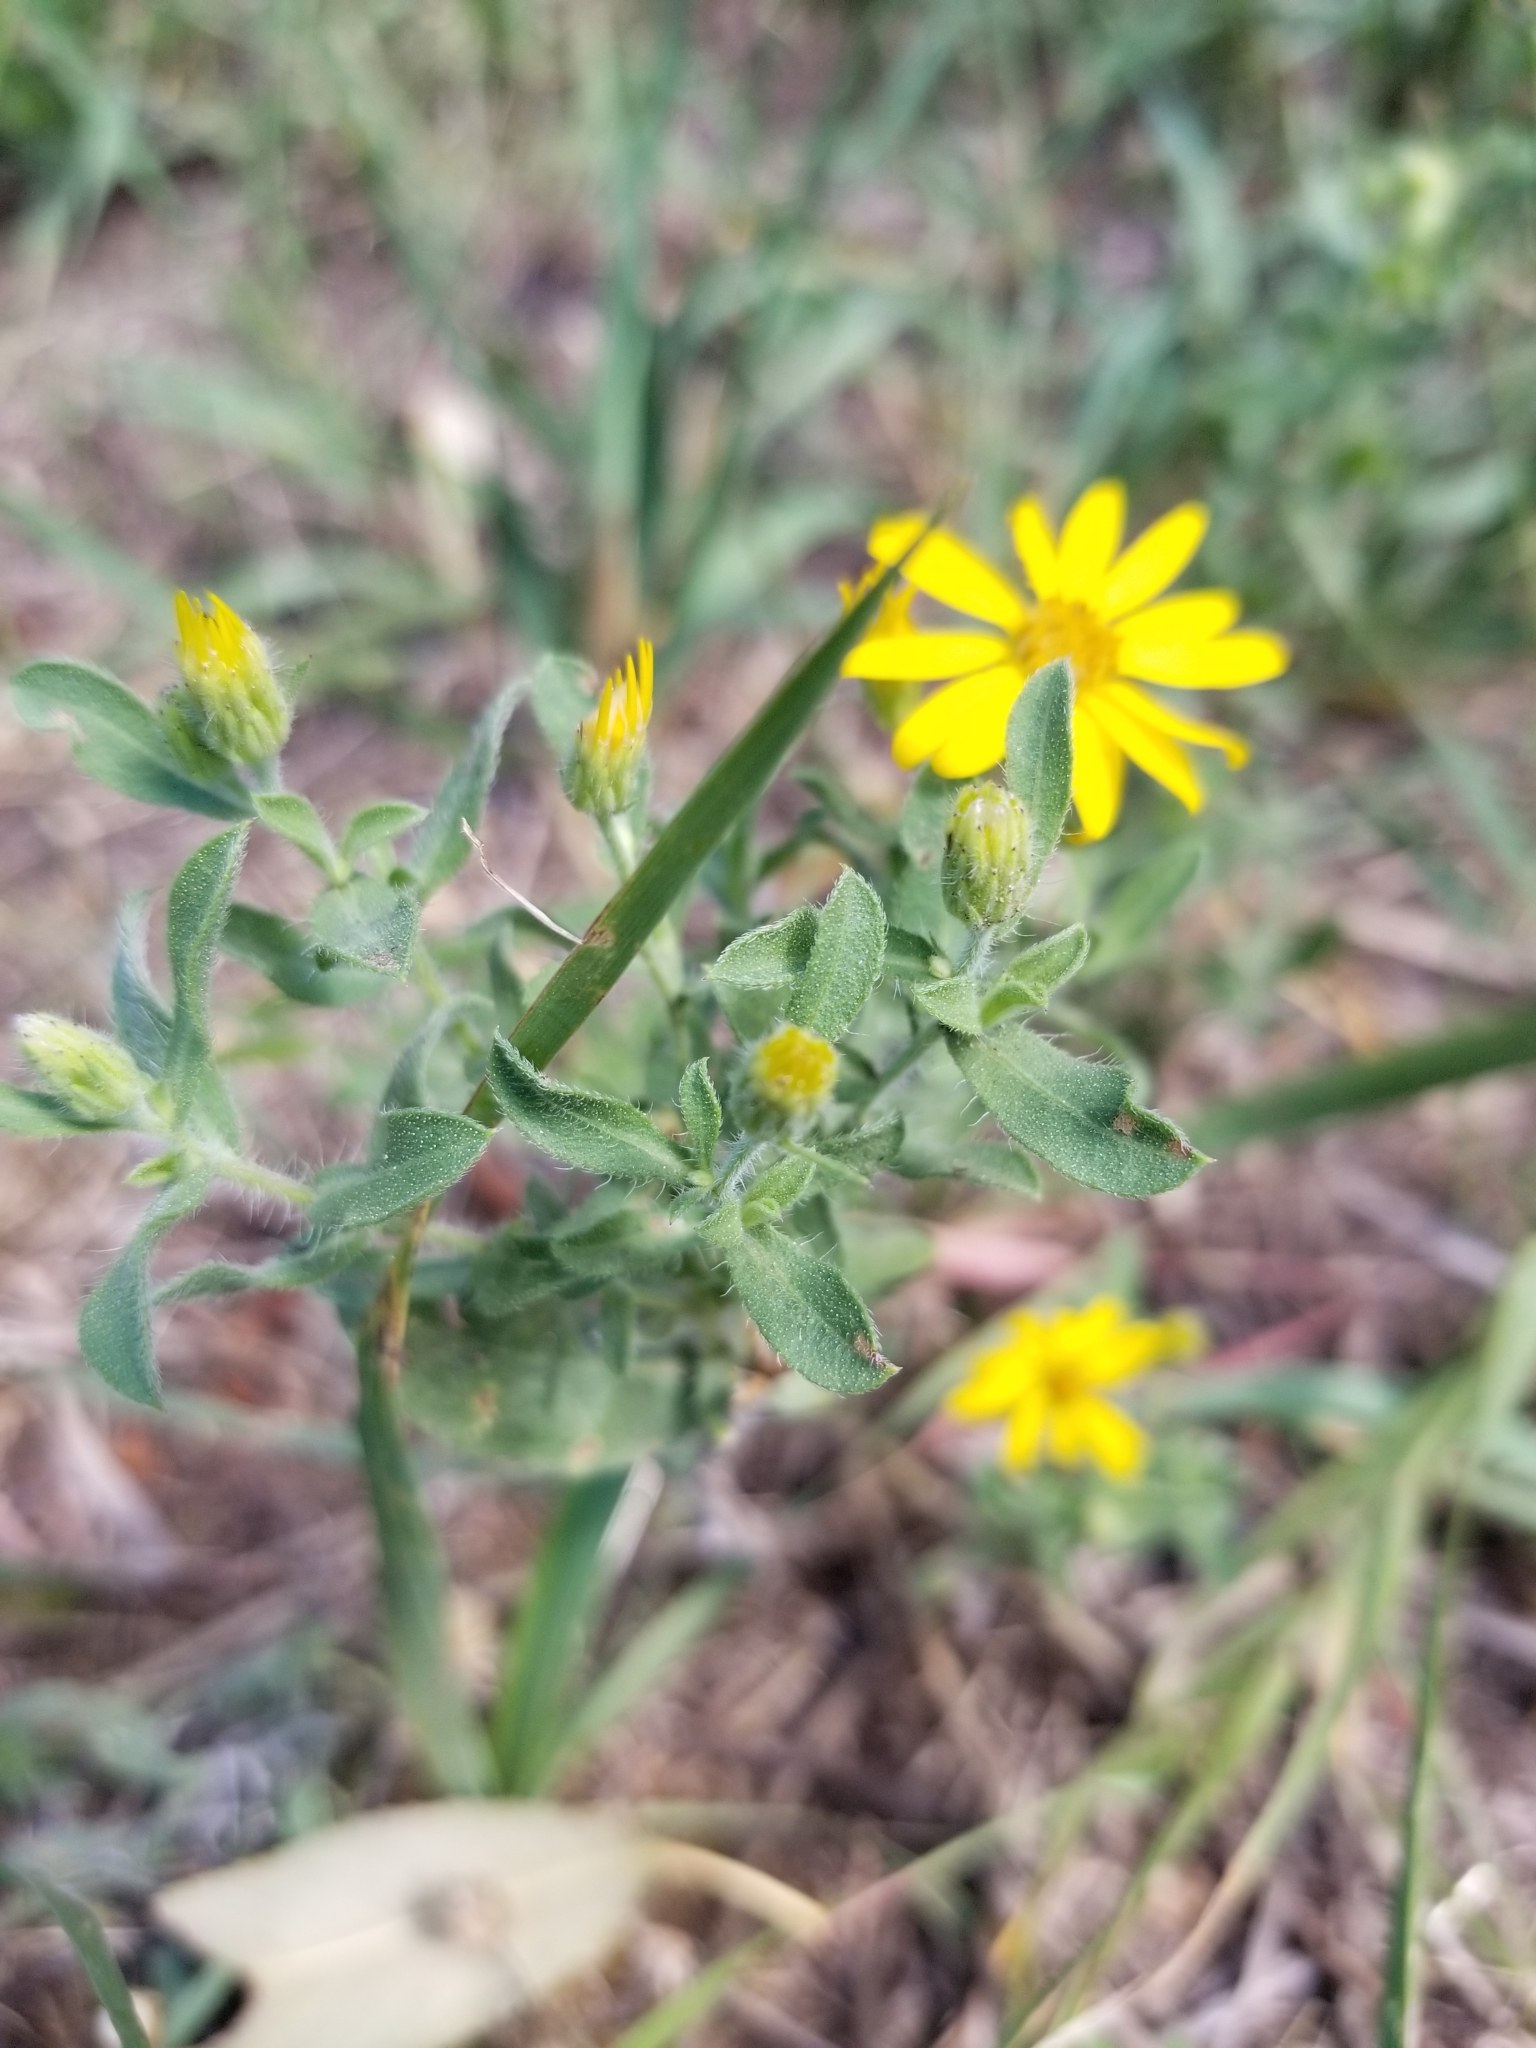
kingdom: Plantae
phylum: Tracheophyta
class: Magnoliopsida
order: Asterales
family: Asteraceae
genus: Heterotheca
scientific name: Heterotheca villosa
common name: Hairy false goldenaster
